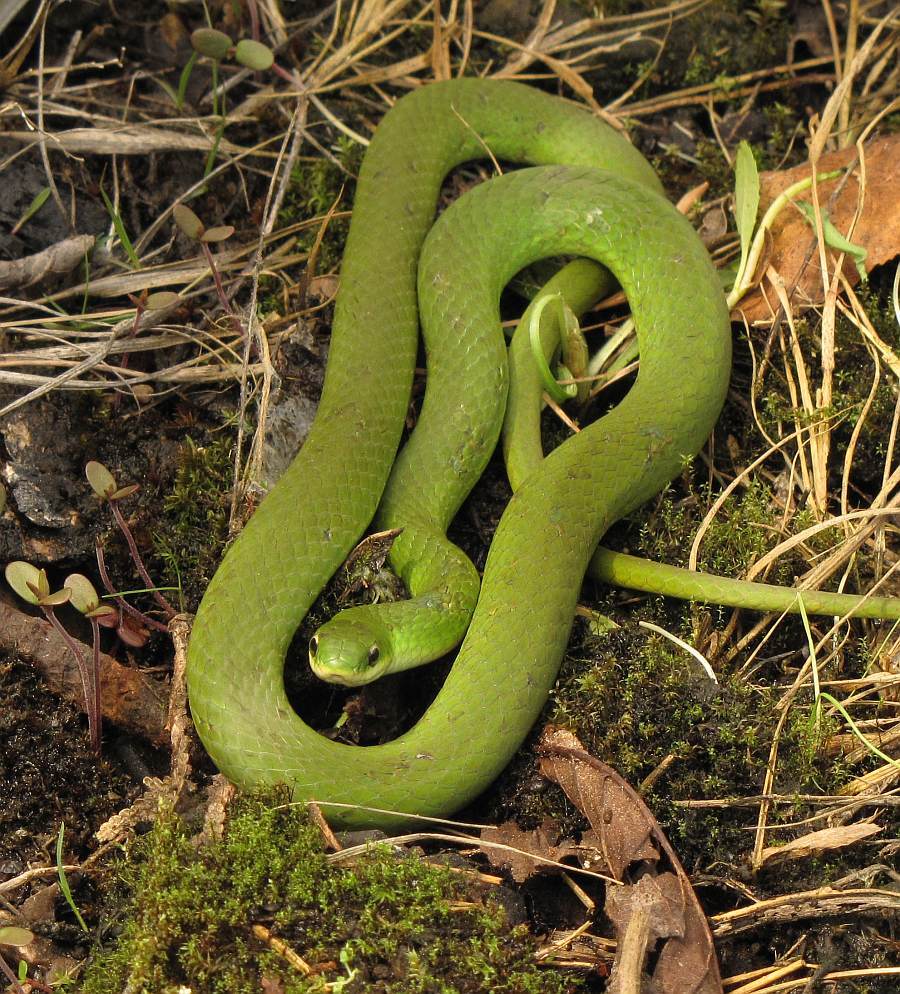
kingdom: Animalia
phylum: Chordata
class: Squamata
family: Colubridae
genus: Opheodrys
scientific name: Opheodrys vernalis
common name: Smooth green snake
